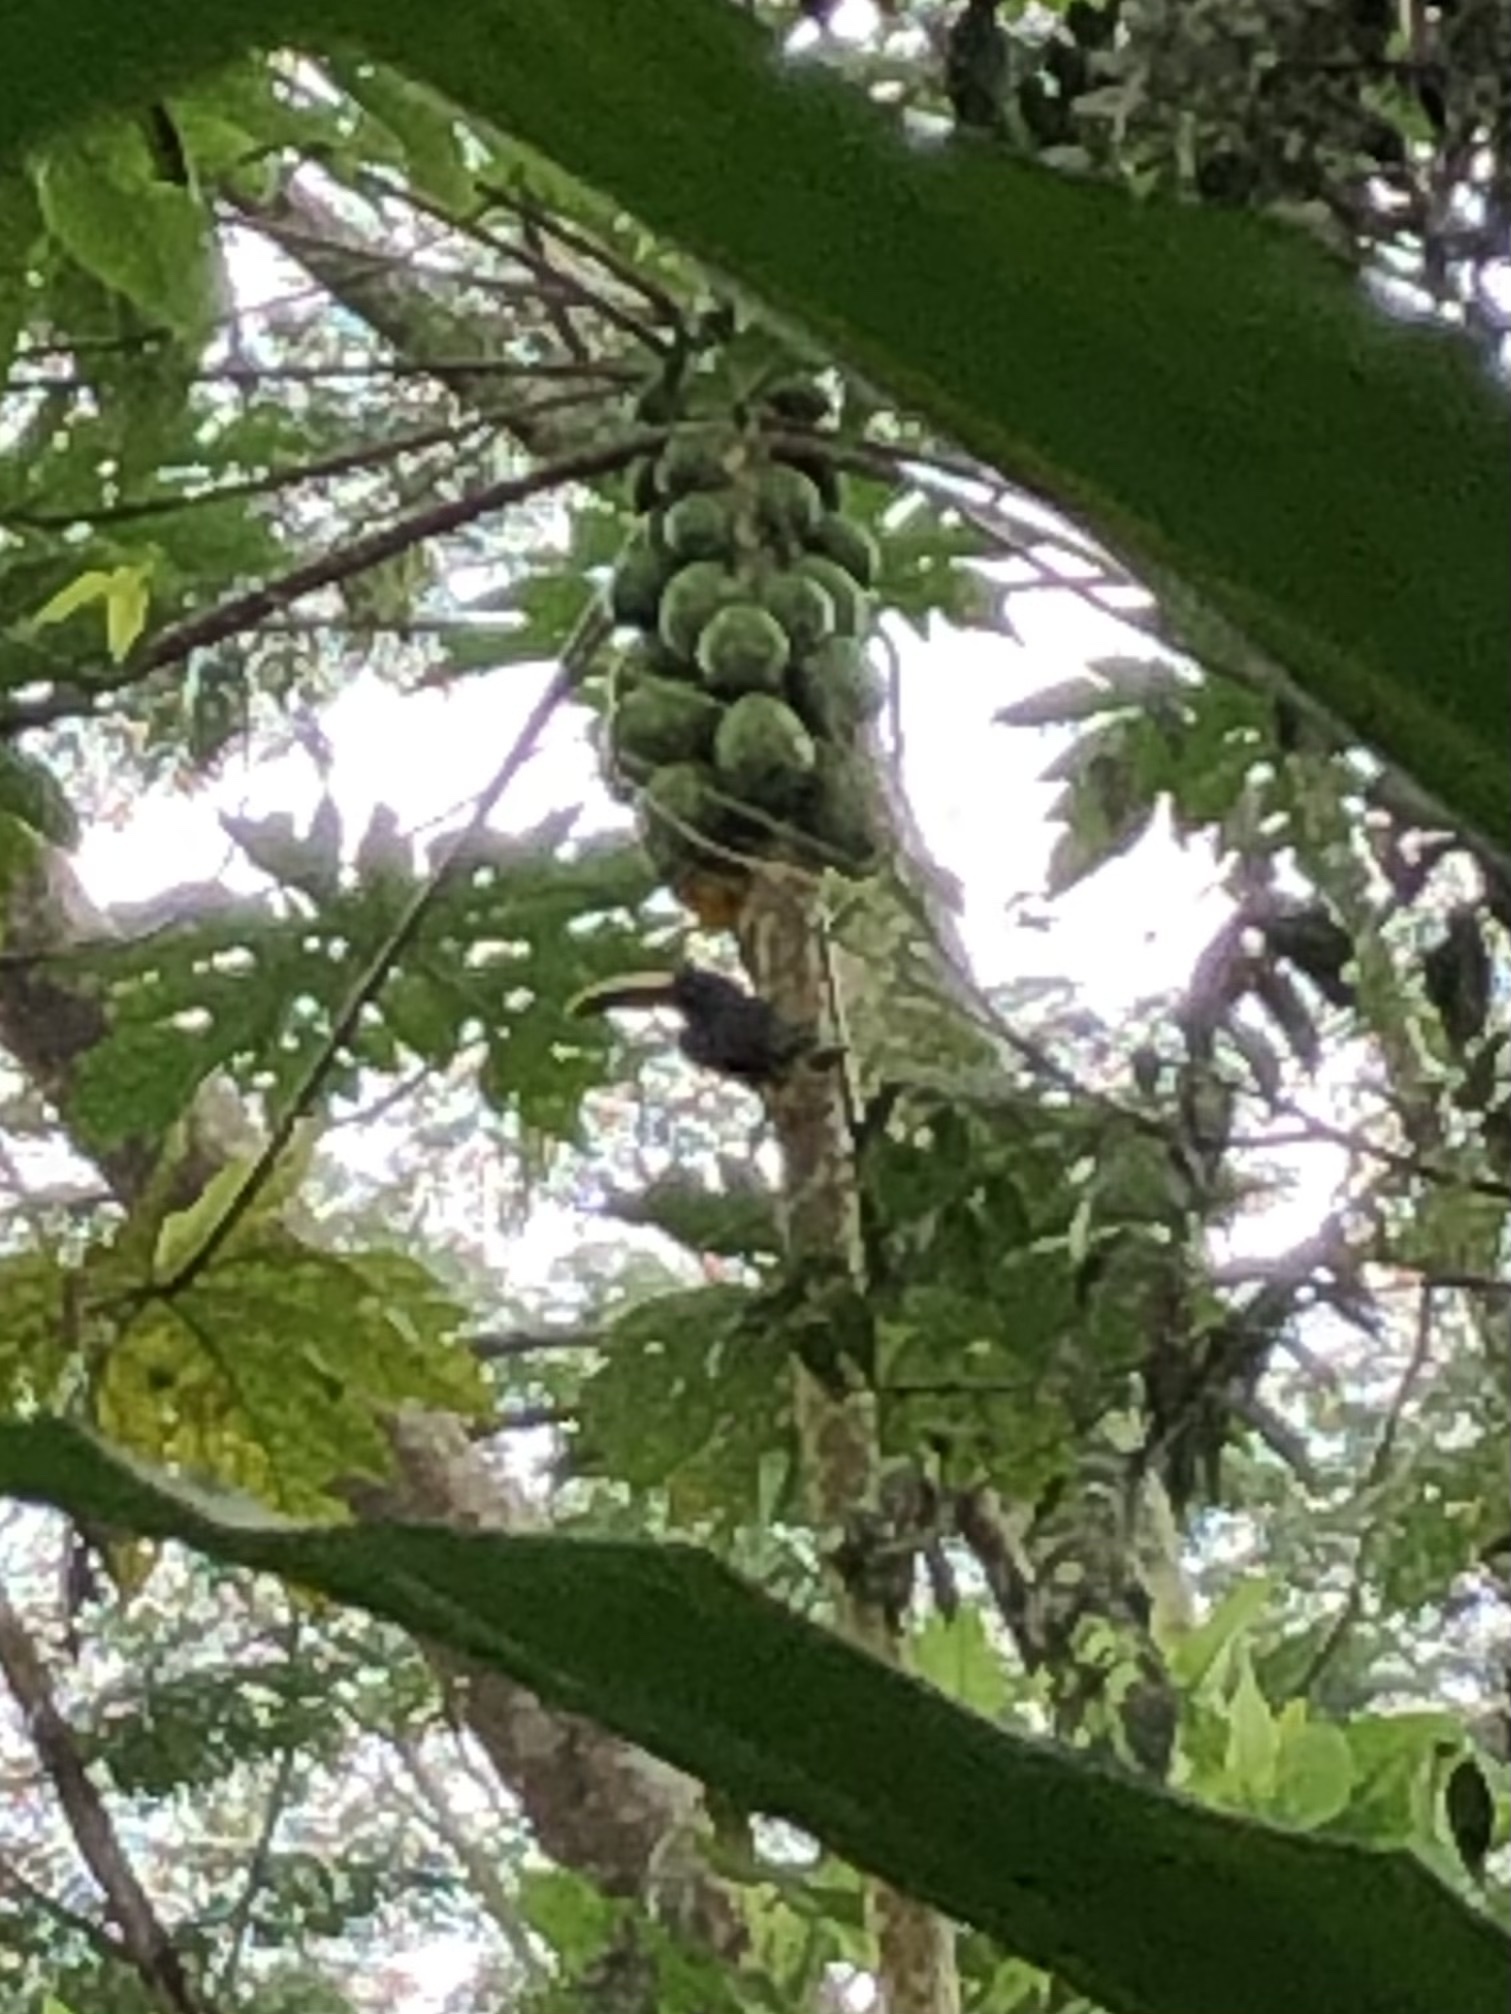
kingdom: Animalia
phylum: Chordata
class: Aves
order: Piciformes
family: Ramphastidae
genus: Pteroglossus
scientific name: Pteroglossus torquatus
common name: Collared aracari
